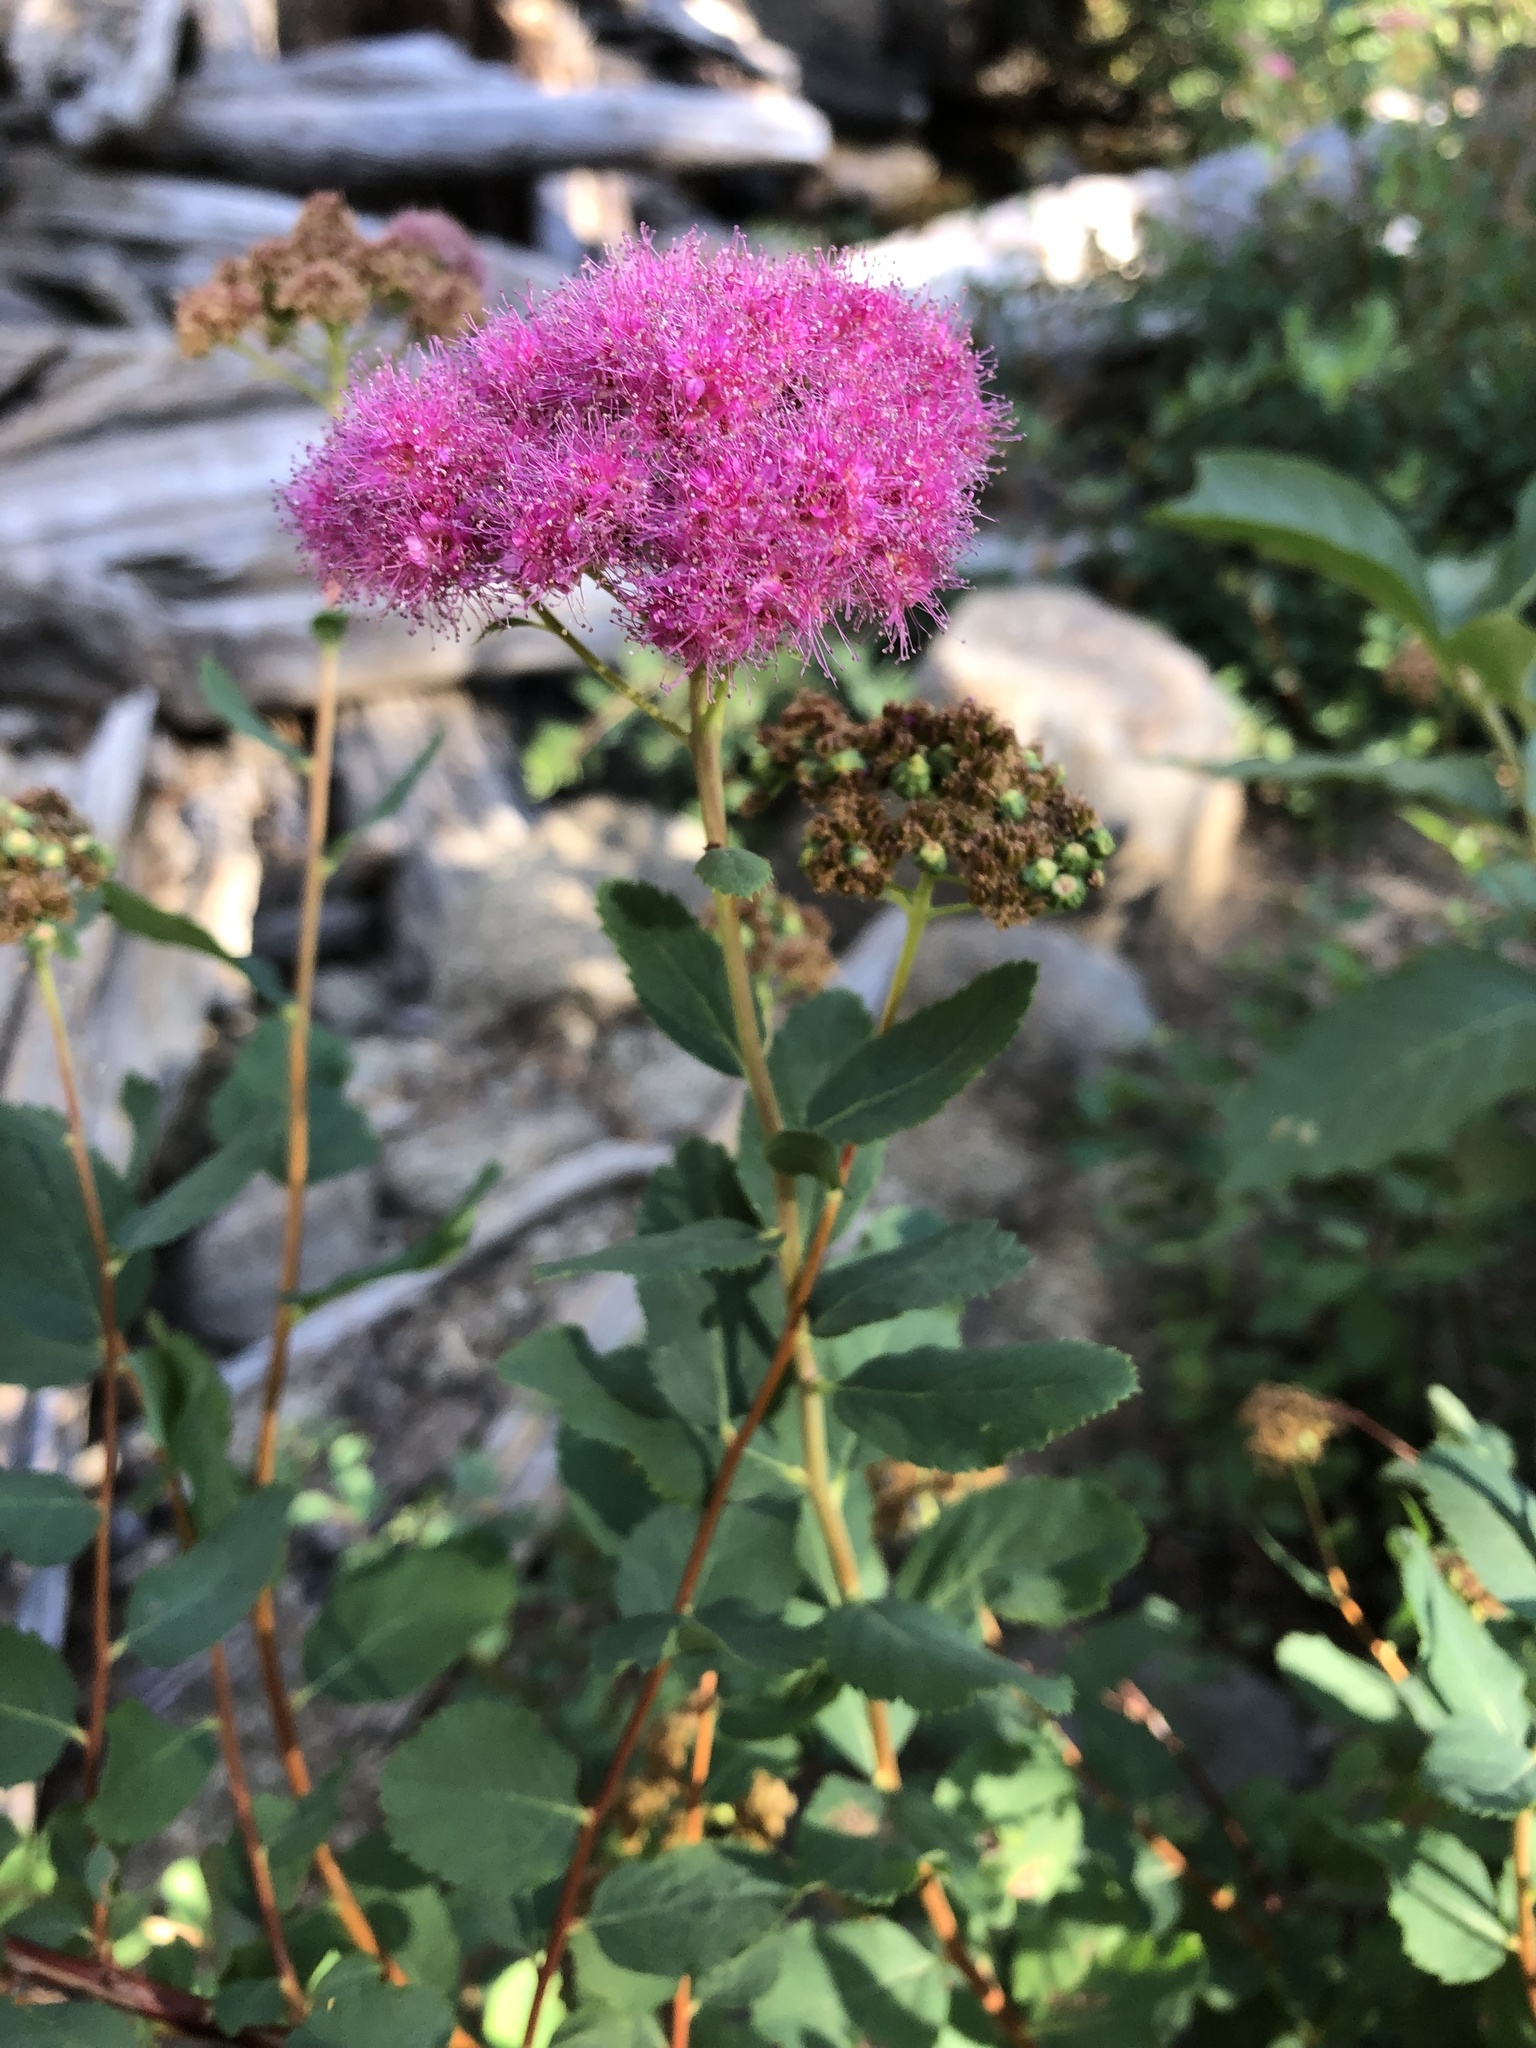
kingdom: Plantae
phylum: Tracheophyta
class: Magnoliopsida
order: Rosales
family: Rosaceae
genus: Spiraea
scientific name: Spiraea splendens
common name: Subalpine meadowsweet
